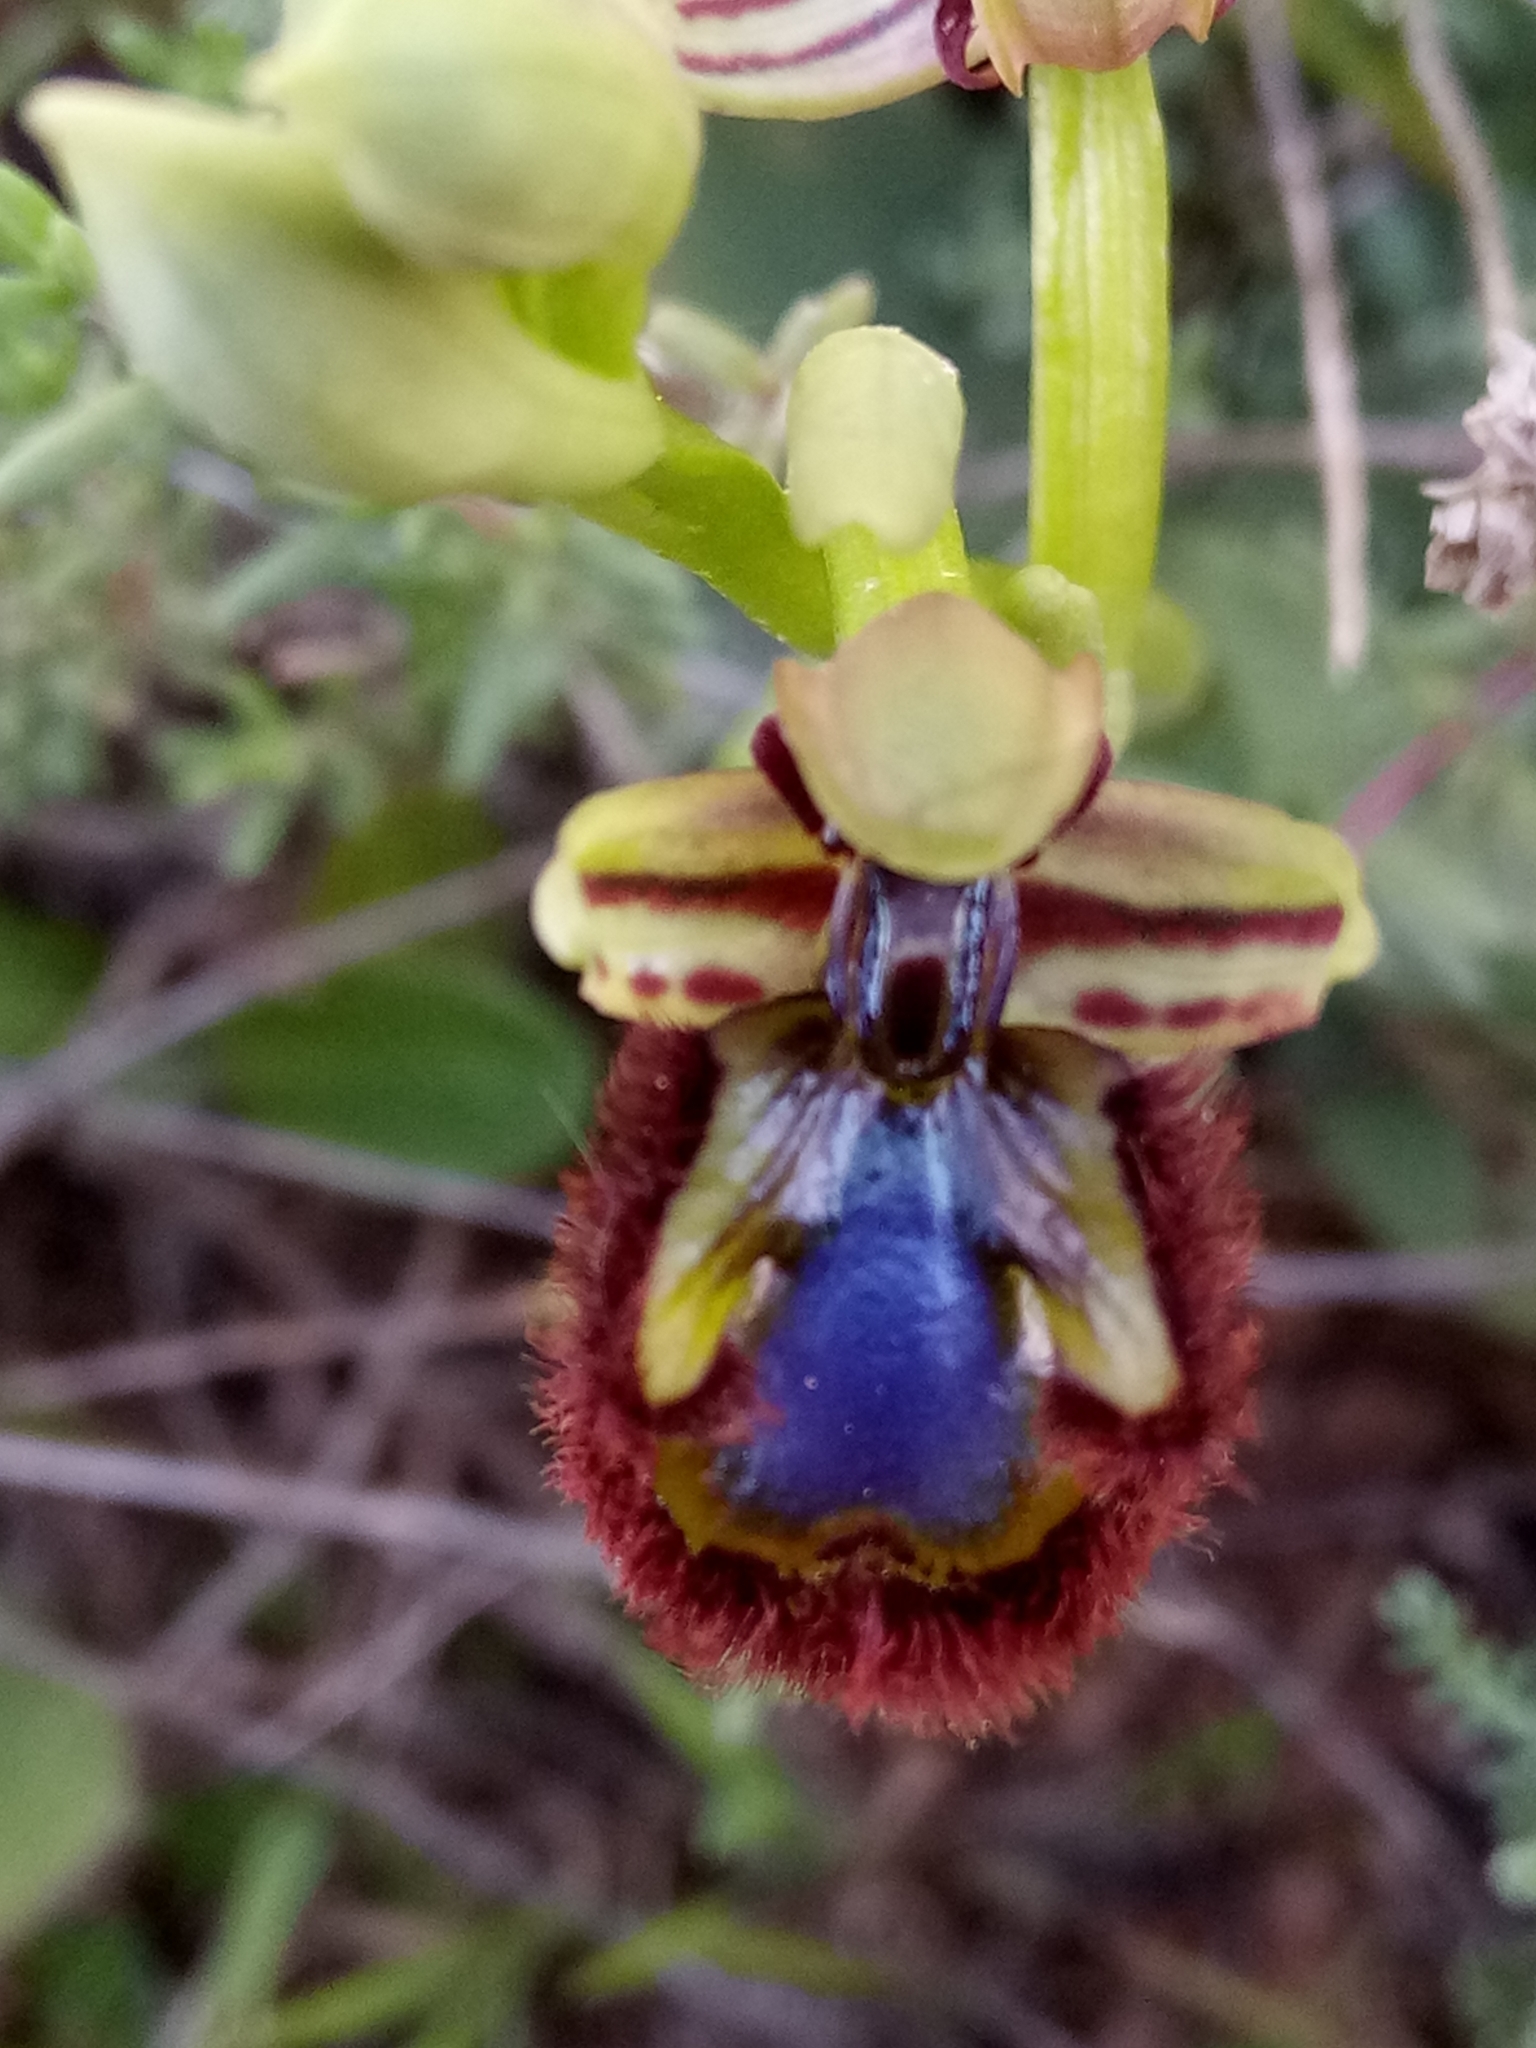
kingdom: Plantae
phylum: Tracheophyta
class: Liliopsida
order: Asparagales
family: Orchidaceae
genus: Ophrys
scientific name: Ophrys speculum
